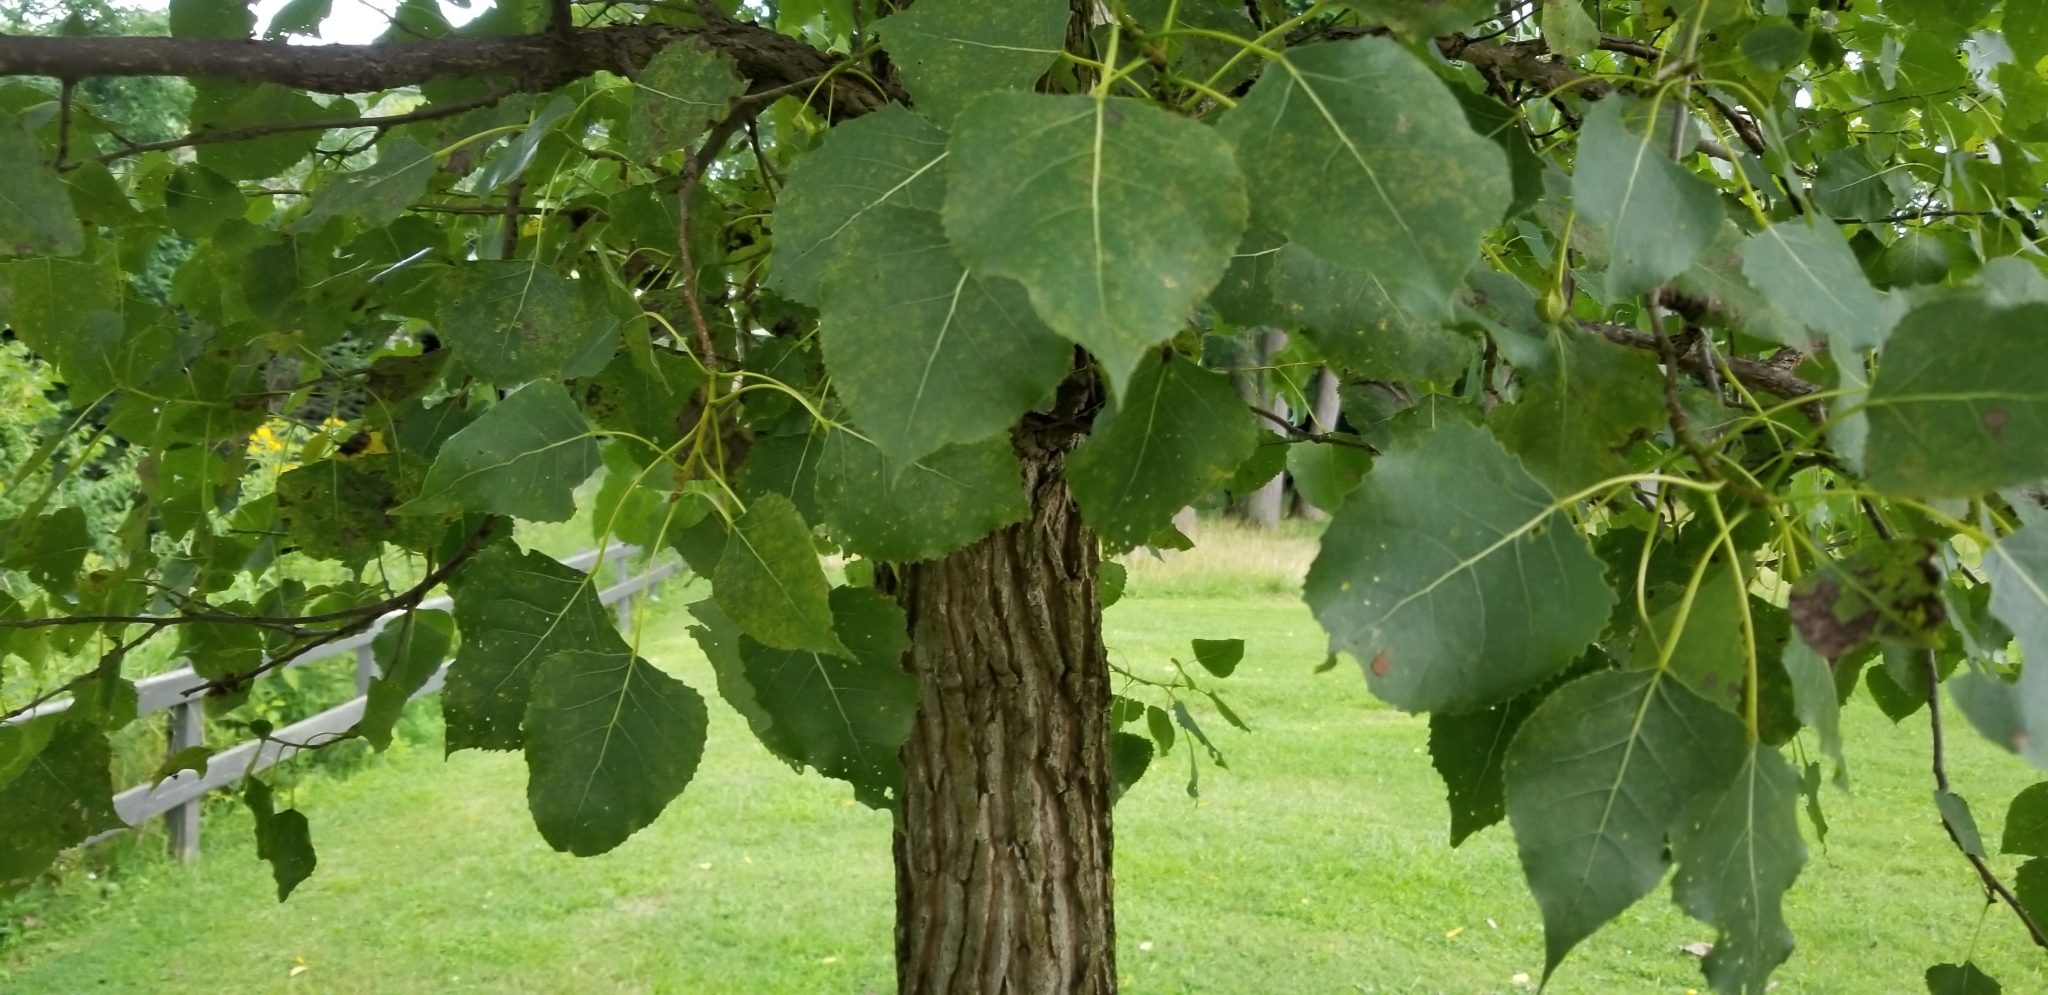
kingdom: Plantae
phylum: Tracheophyta
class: Magnoliopsida
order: Malpighiales
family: Salicaceae
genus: Populus
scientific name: Populus deltoides
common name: Eastern cottonwood
